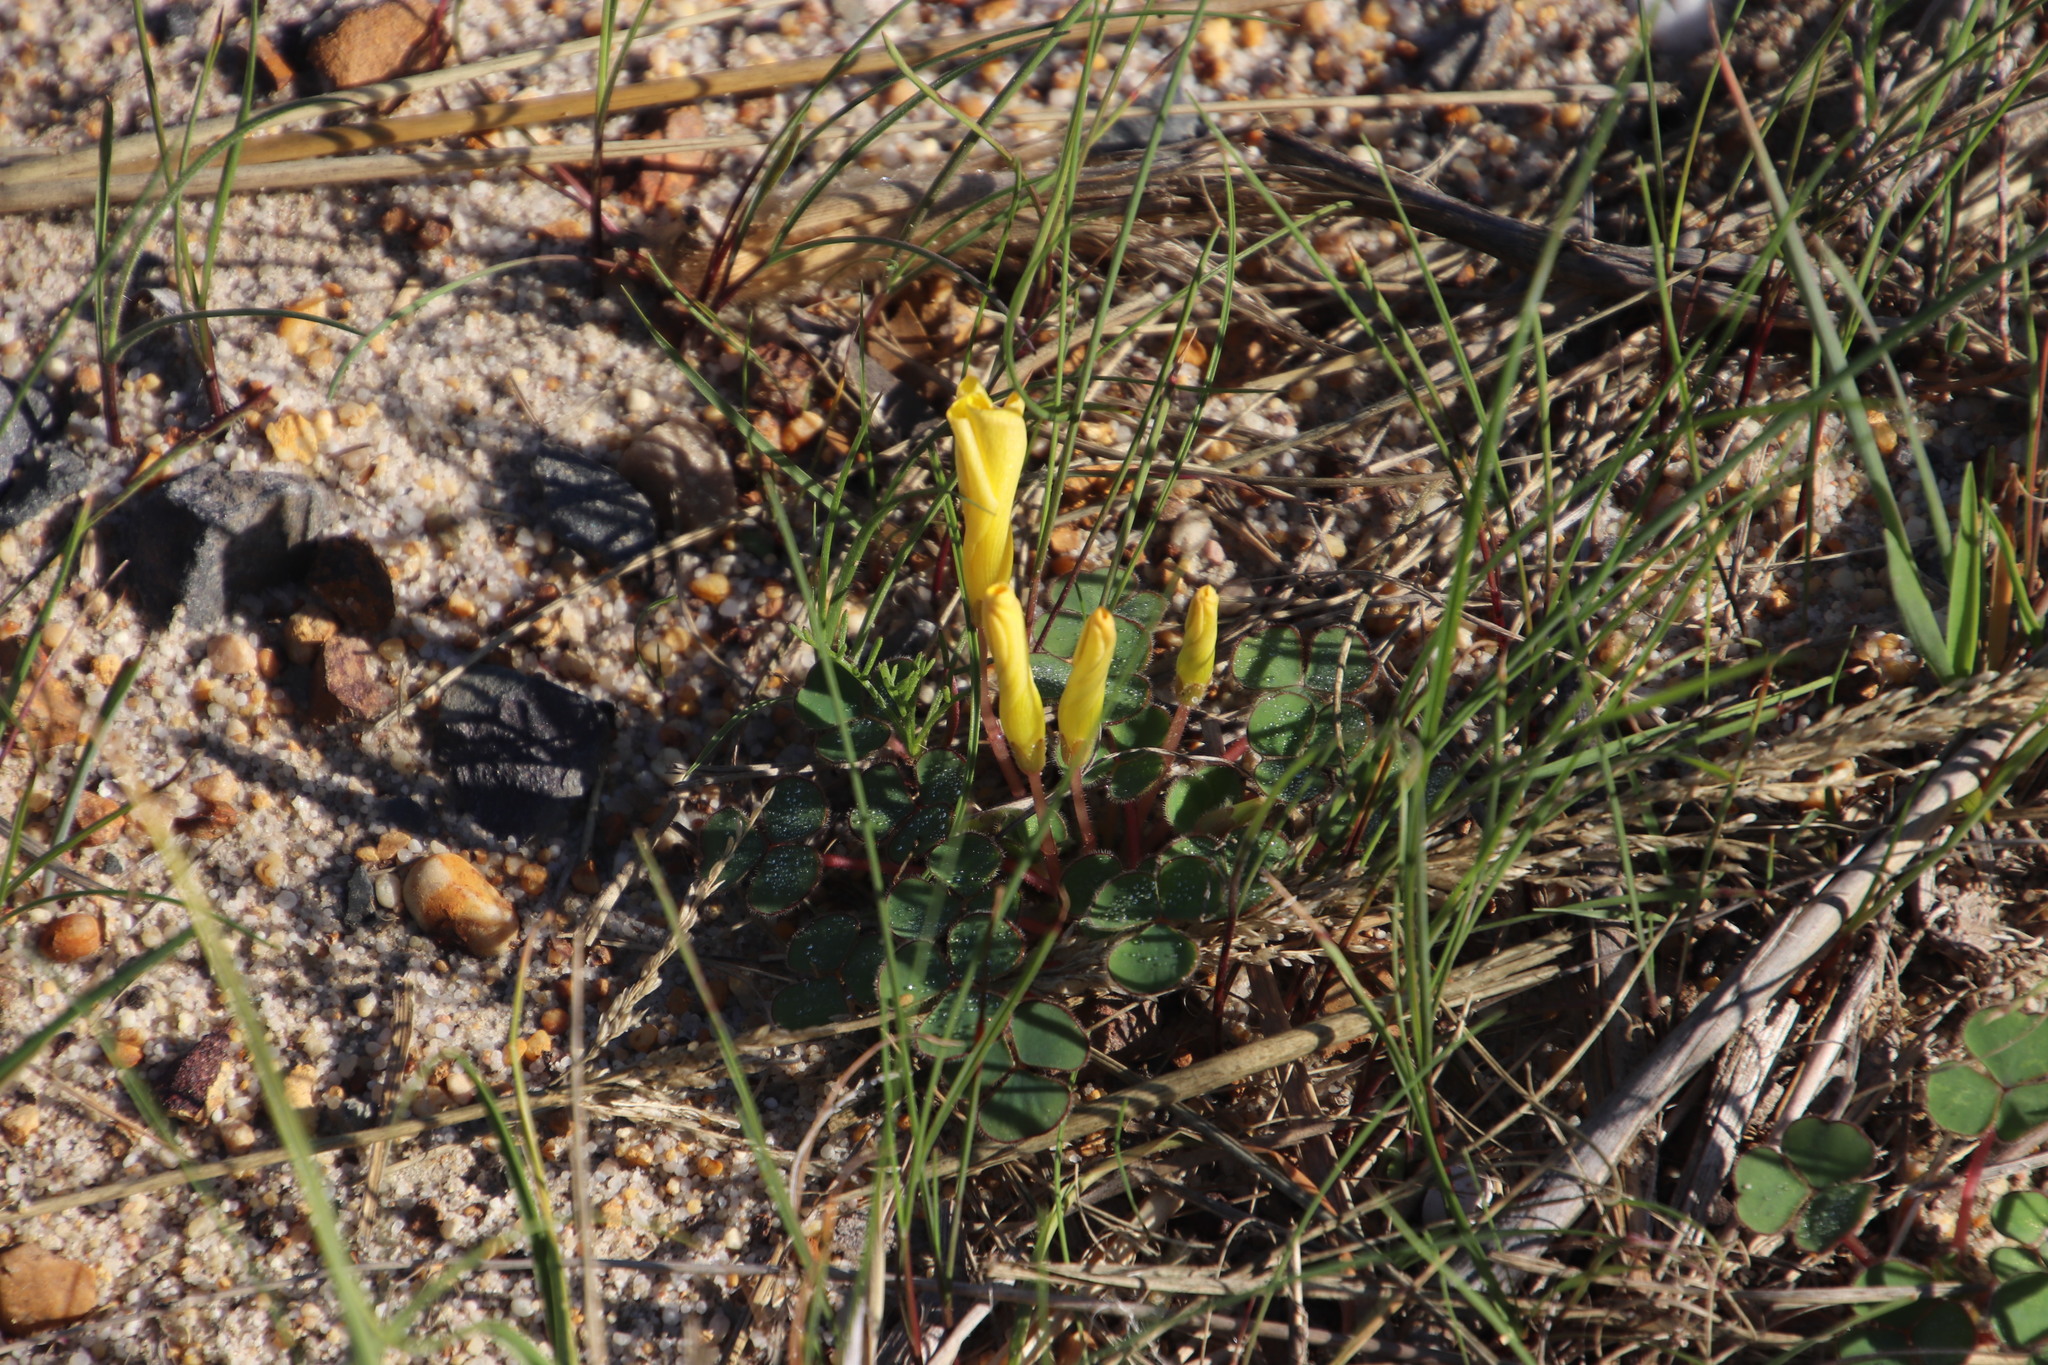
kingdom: Plantae
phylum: Tracheophyta
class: Magnoliopsida
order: Oxalidales
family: Oxalidaceae
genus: Oxalis
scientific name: Oxalis luteola
